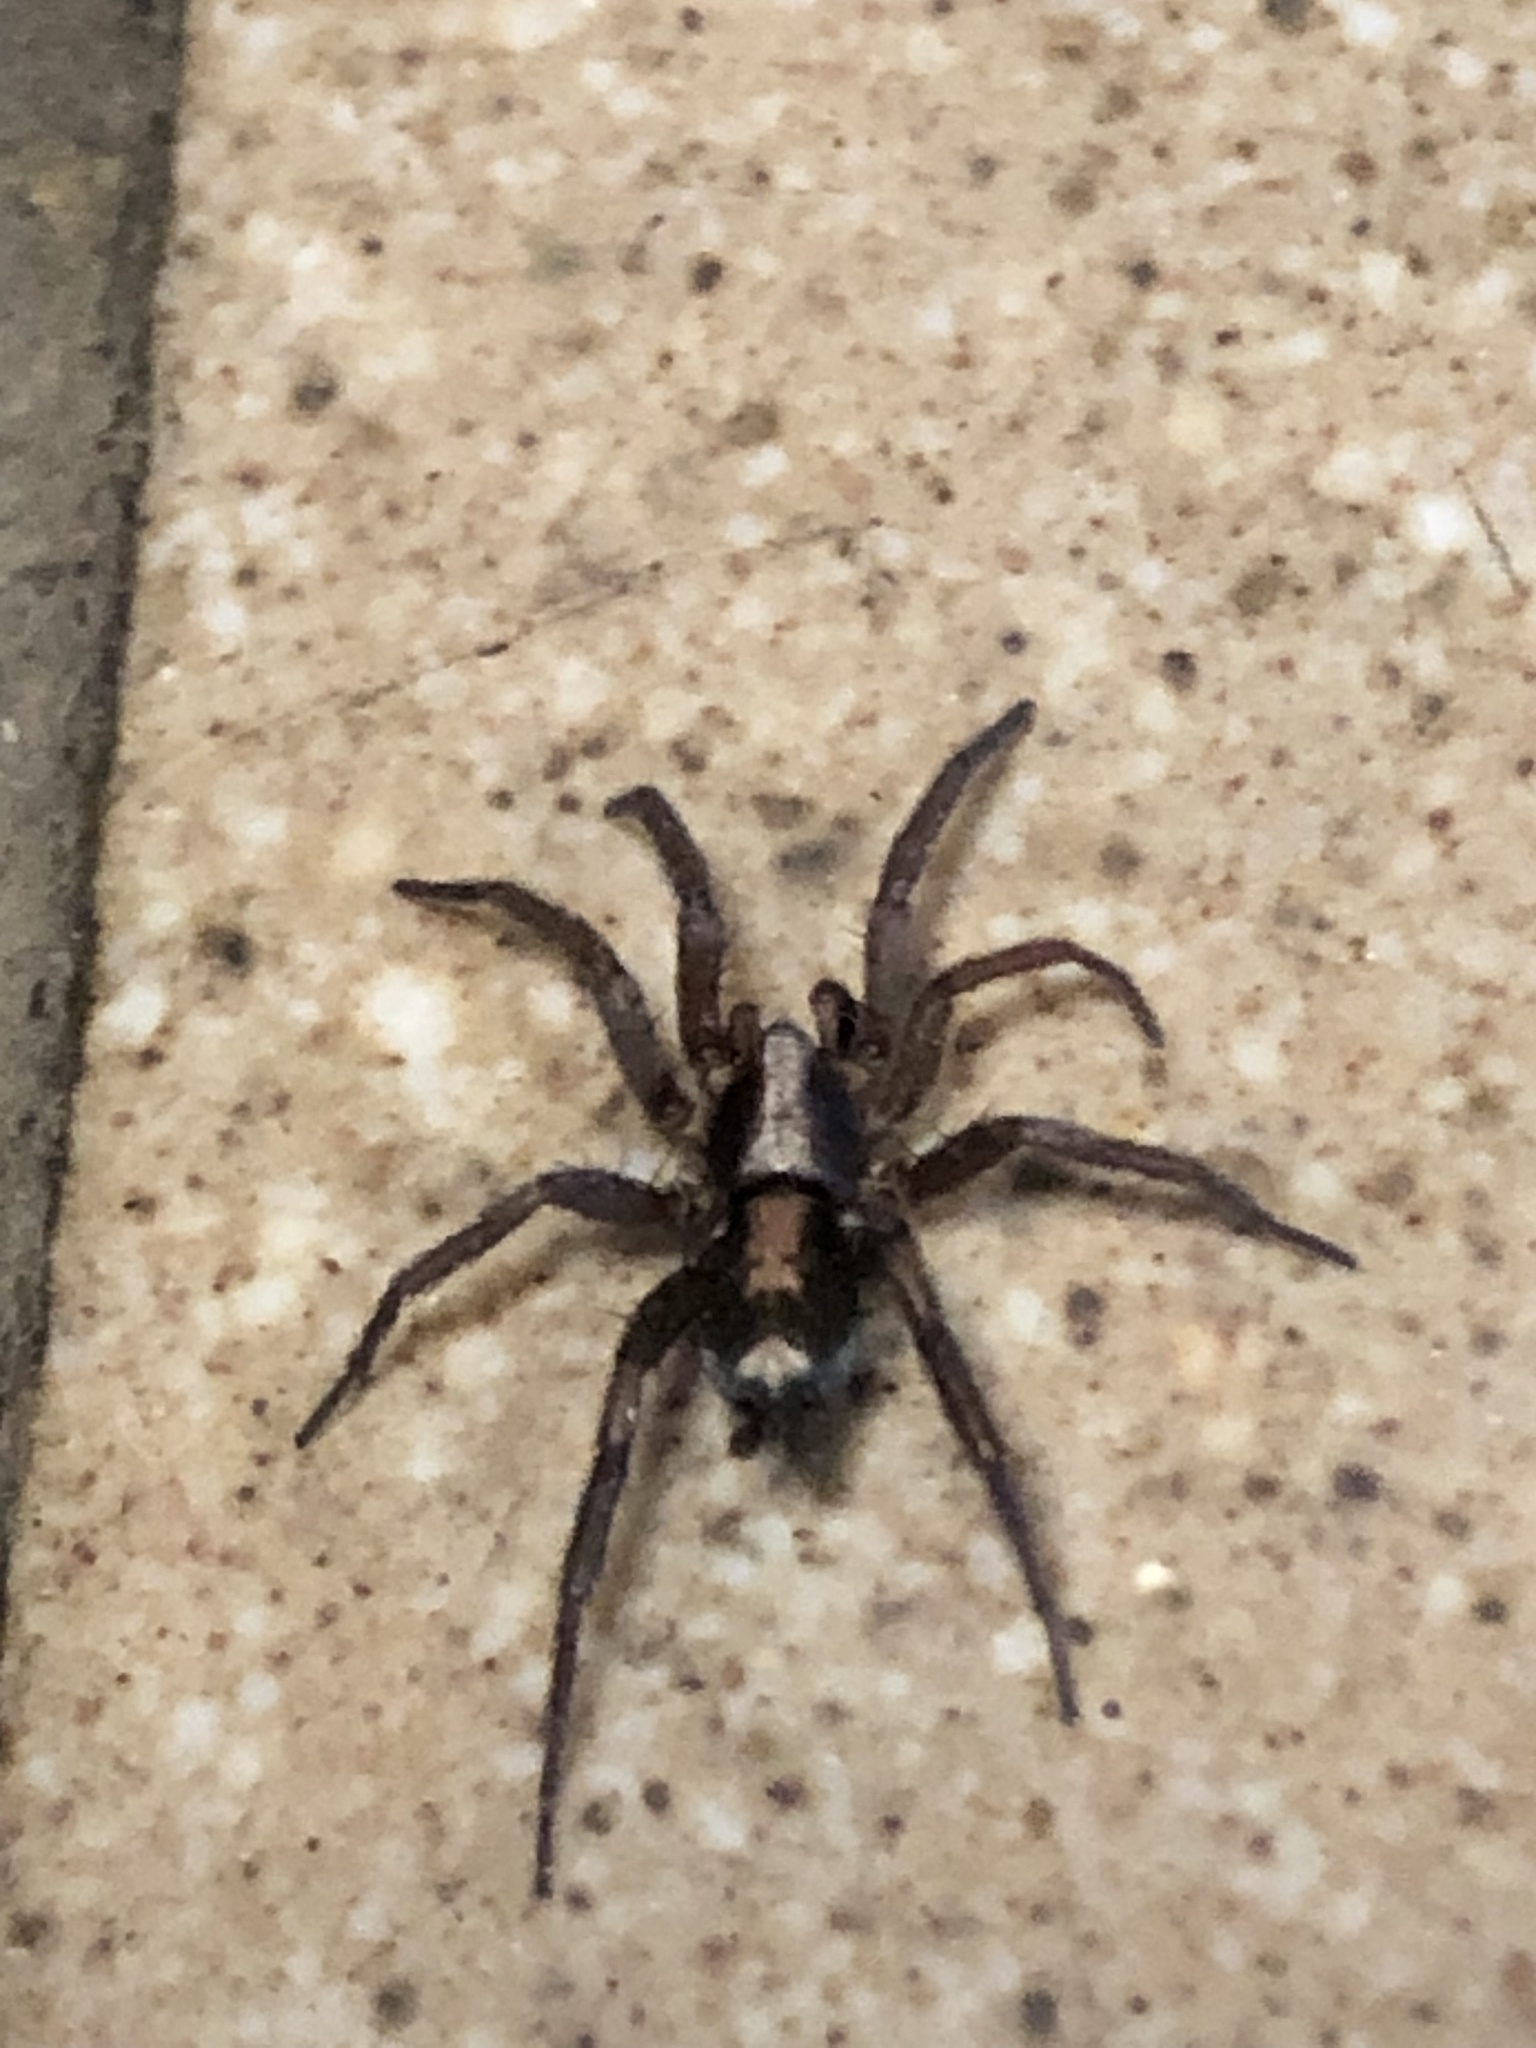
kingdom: Animalia
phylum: Arthropoda
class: Arachnida
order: Araneae
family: Gnaphosidae
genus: Herpyllus
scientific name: Herpyllus propinquus
